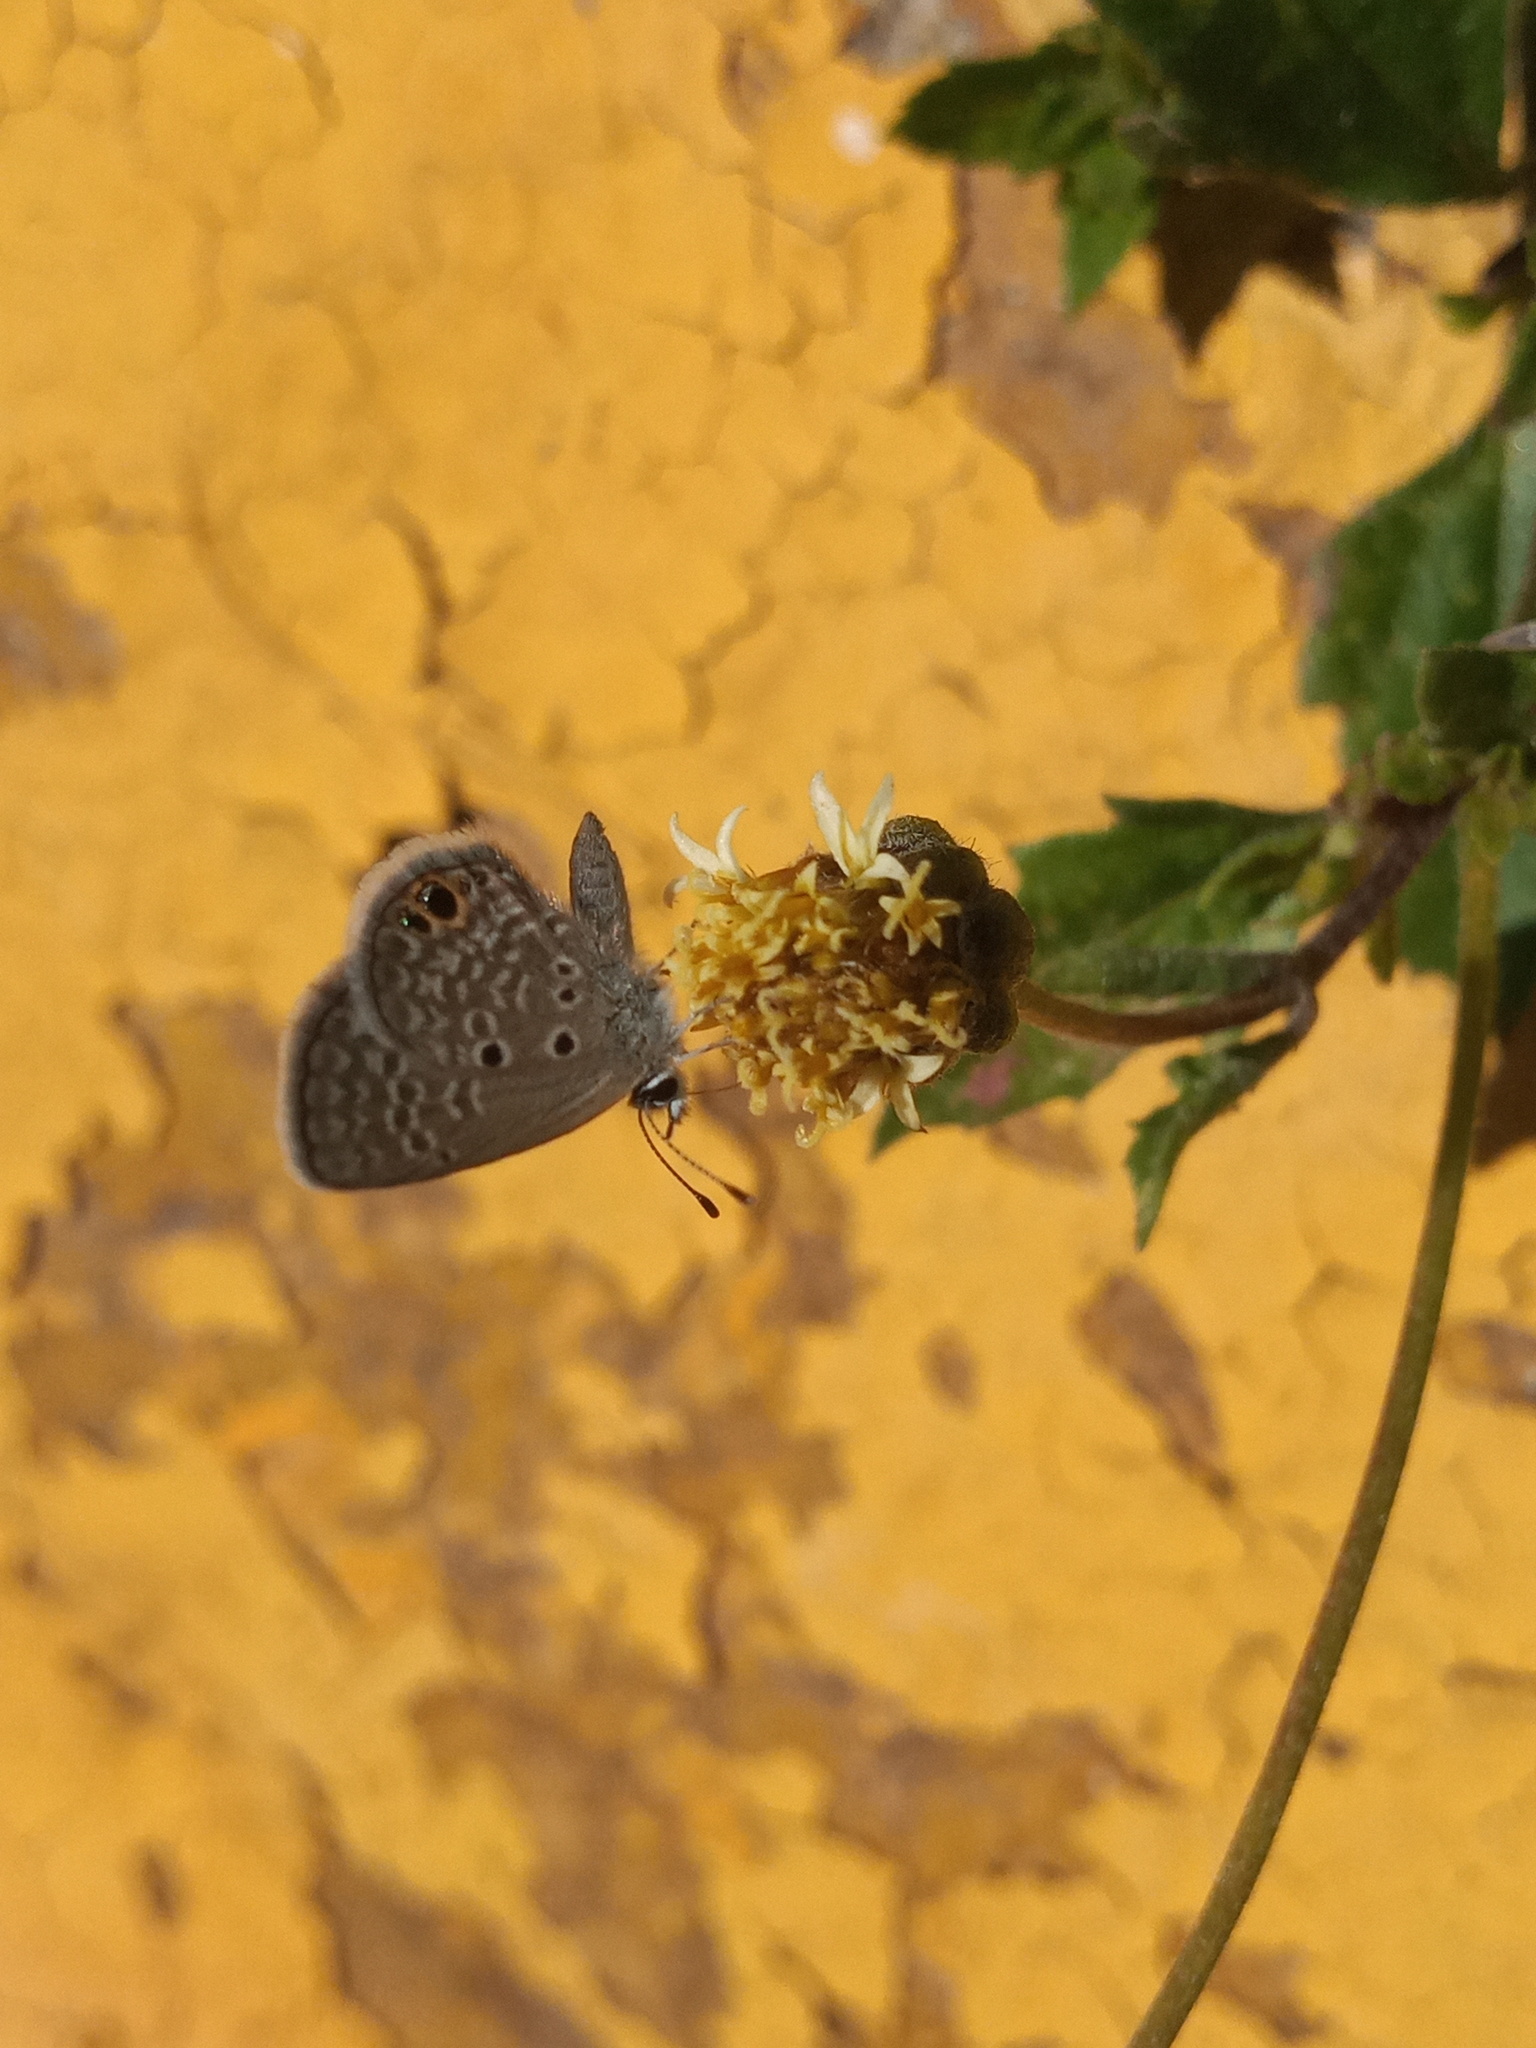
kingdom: Animalia
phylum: Arthropoda
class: Insecta
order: Lepidoptera
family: Lycaenidae
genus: Hemiargus
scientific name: Hemiargus ceraunus
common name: Ceraunus blue
